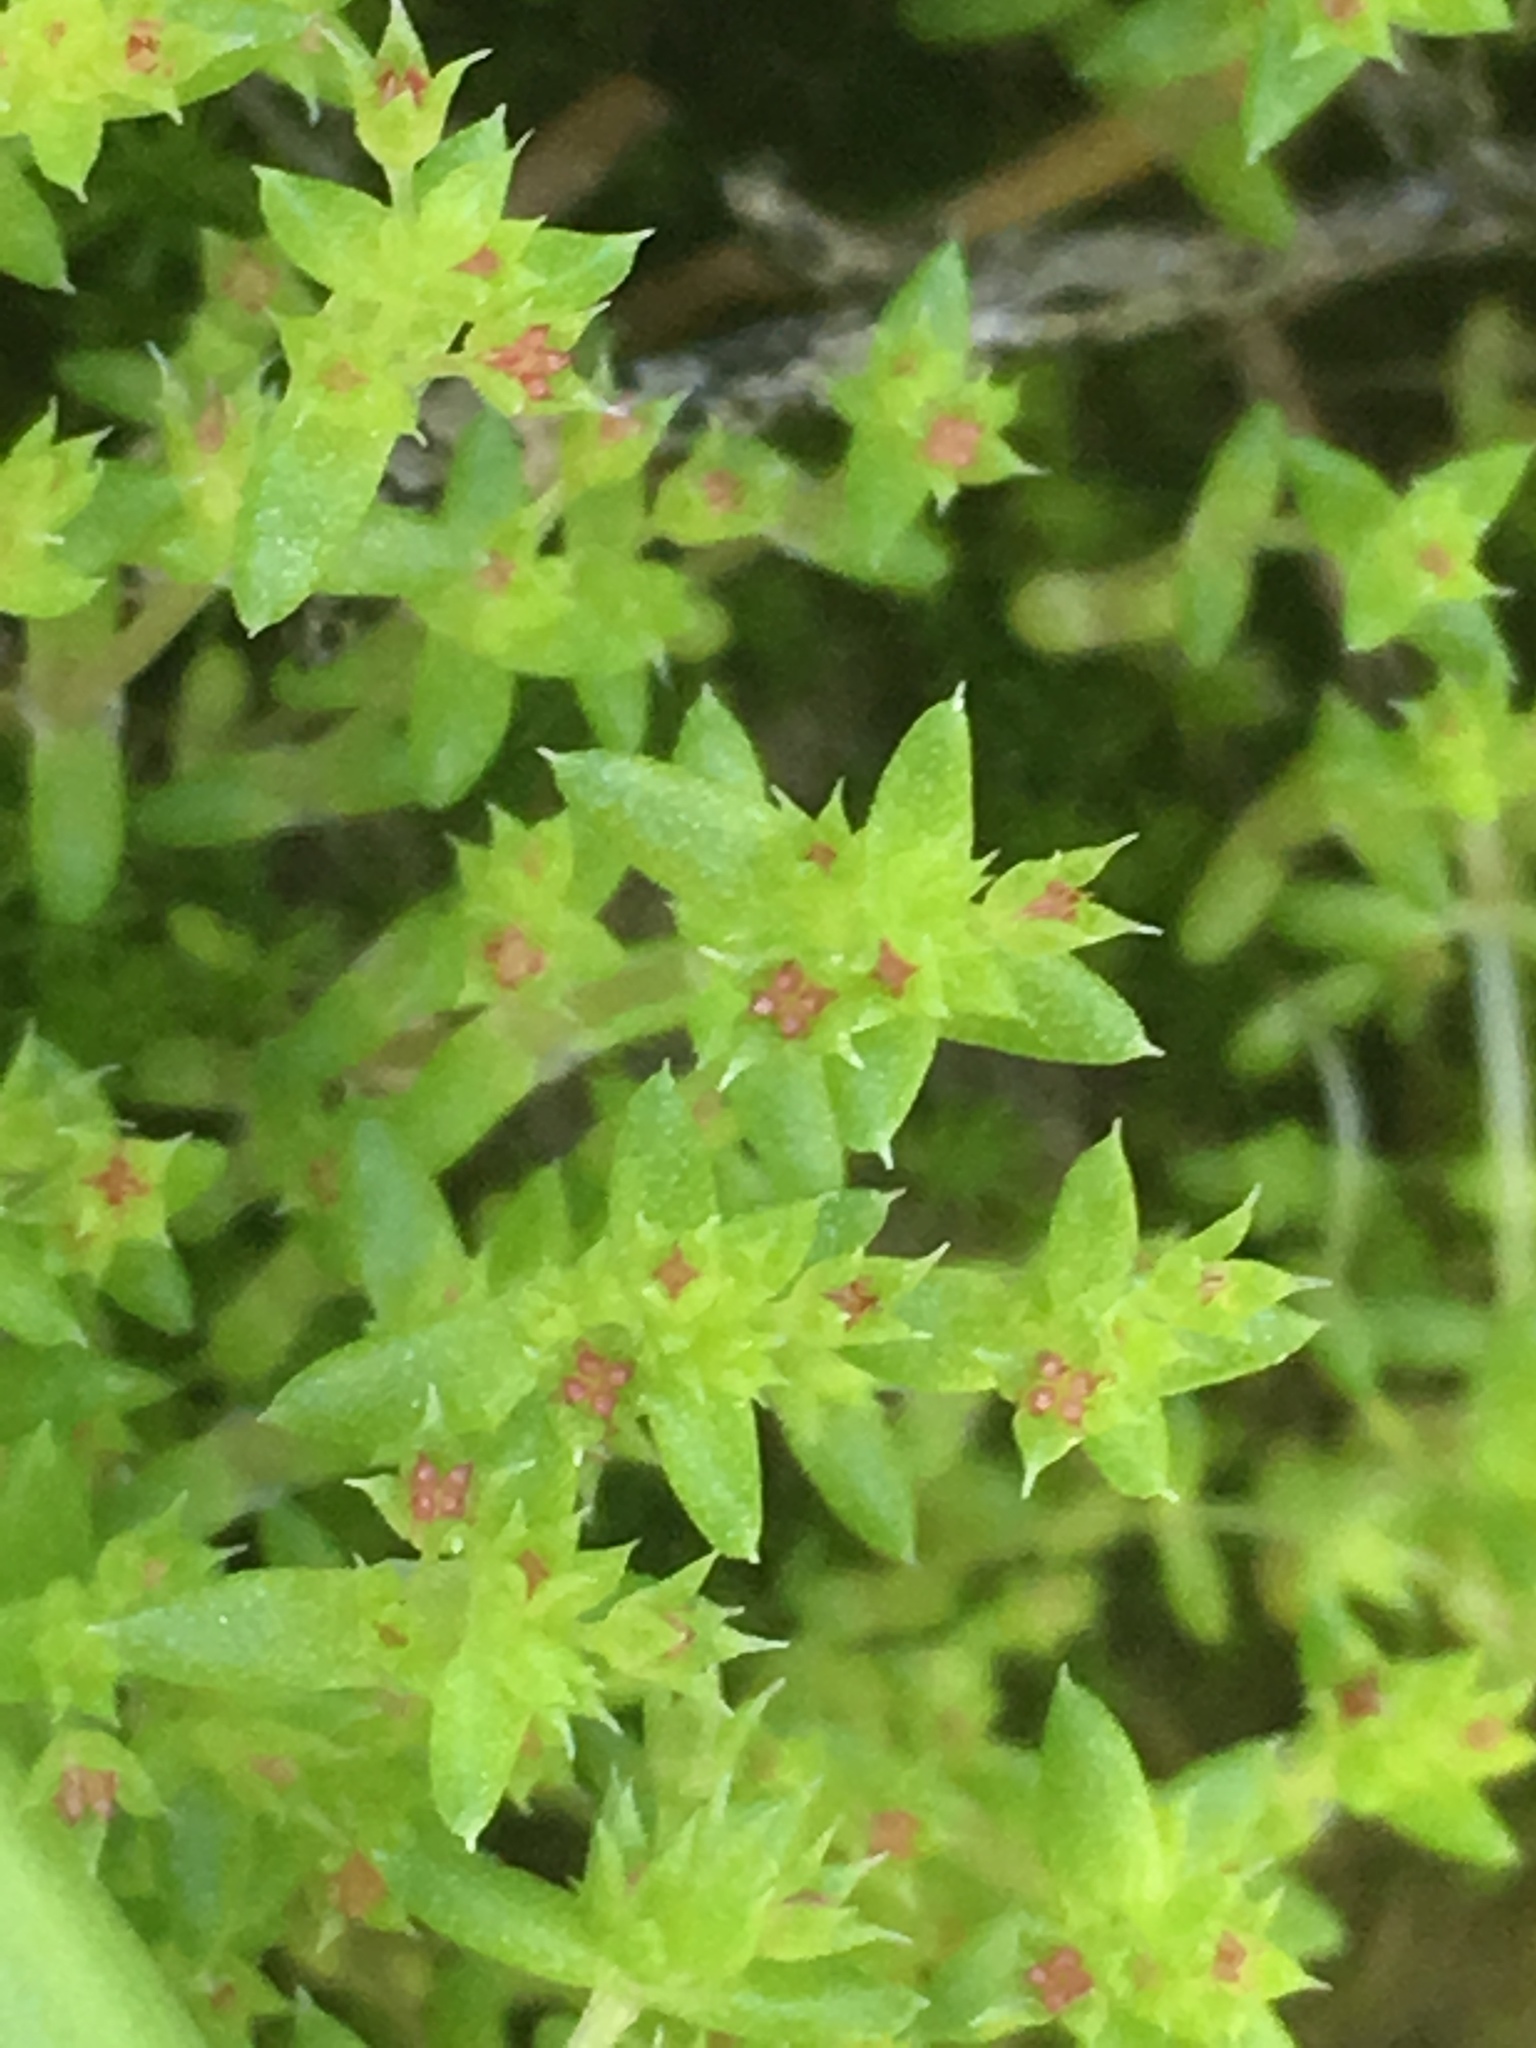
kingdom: Plantae
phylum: Tracheophyta
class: Magnoliopsida
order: Saxifragales
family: Crassulaceae
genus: Crassula
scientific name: Crassula connata
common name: Erect pygmyweed
